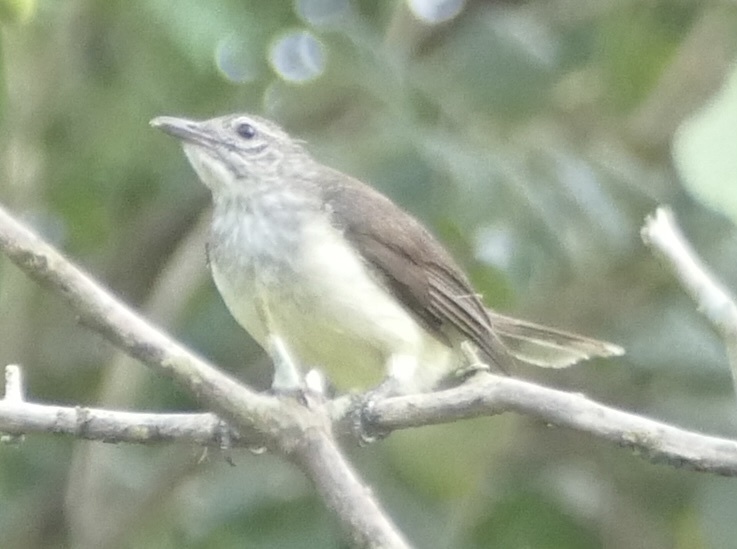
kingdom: Animalia
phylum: Chordata
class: Aves
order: Passeriformes
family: Pycnonotidae
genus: Thescelocichla
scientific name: Thescelocichla leucopleura
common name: Swamp palm bulbul
